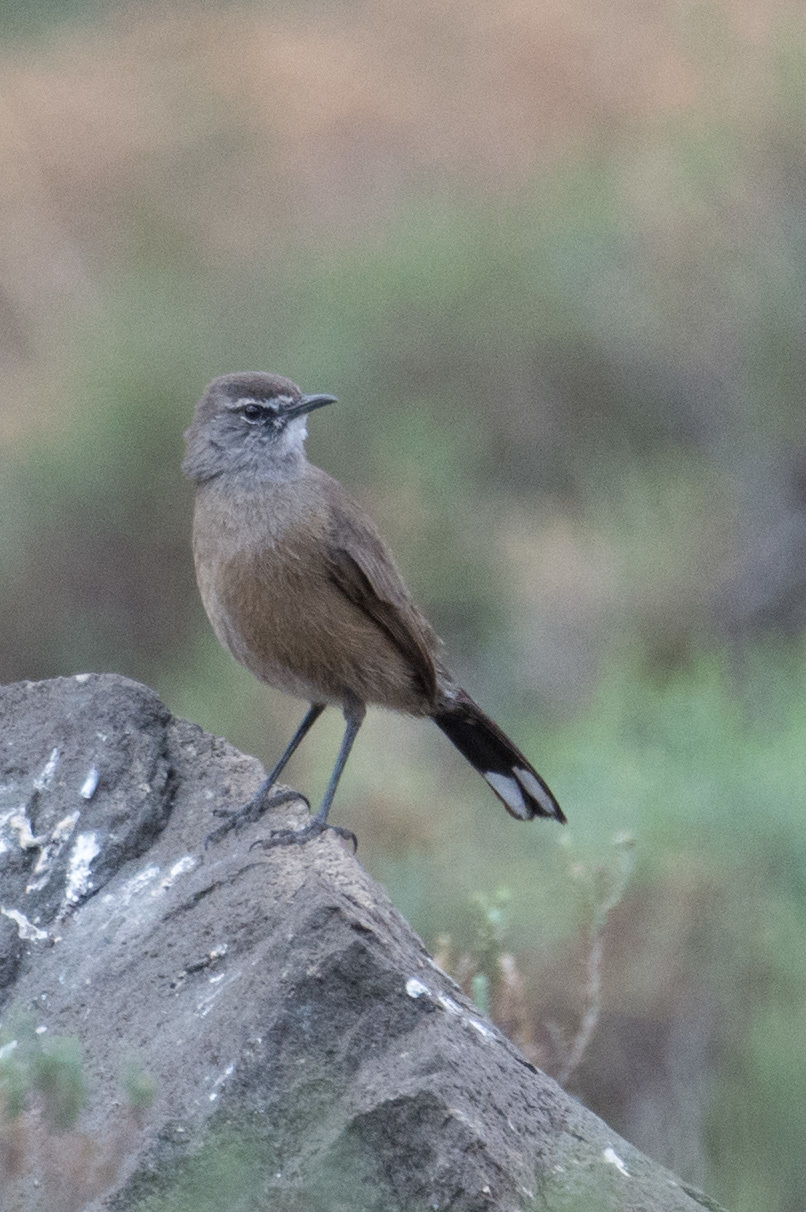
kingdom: Animalia
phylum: Chordata
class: Aves
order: Passeriformes
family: Muscicapidae
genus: Erythropygia
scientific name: Erythropygia coryphoeus
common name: Karoo scrub robin
